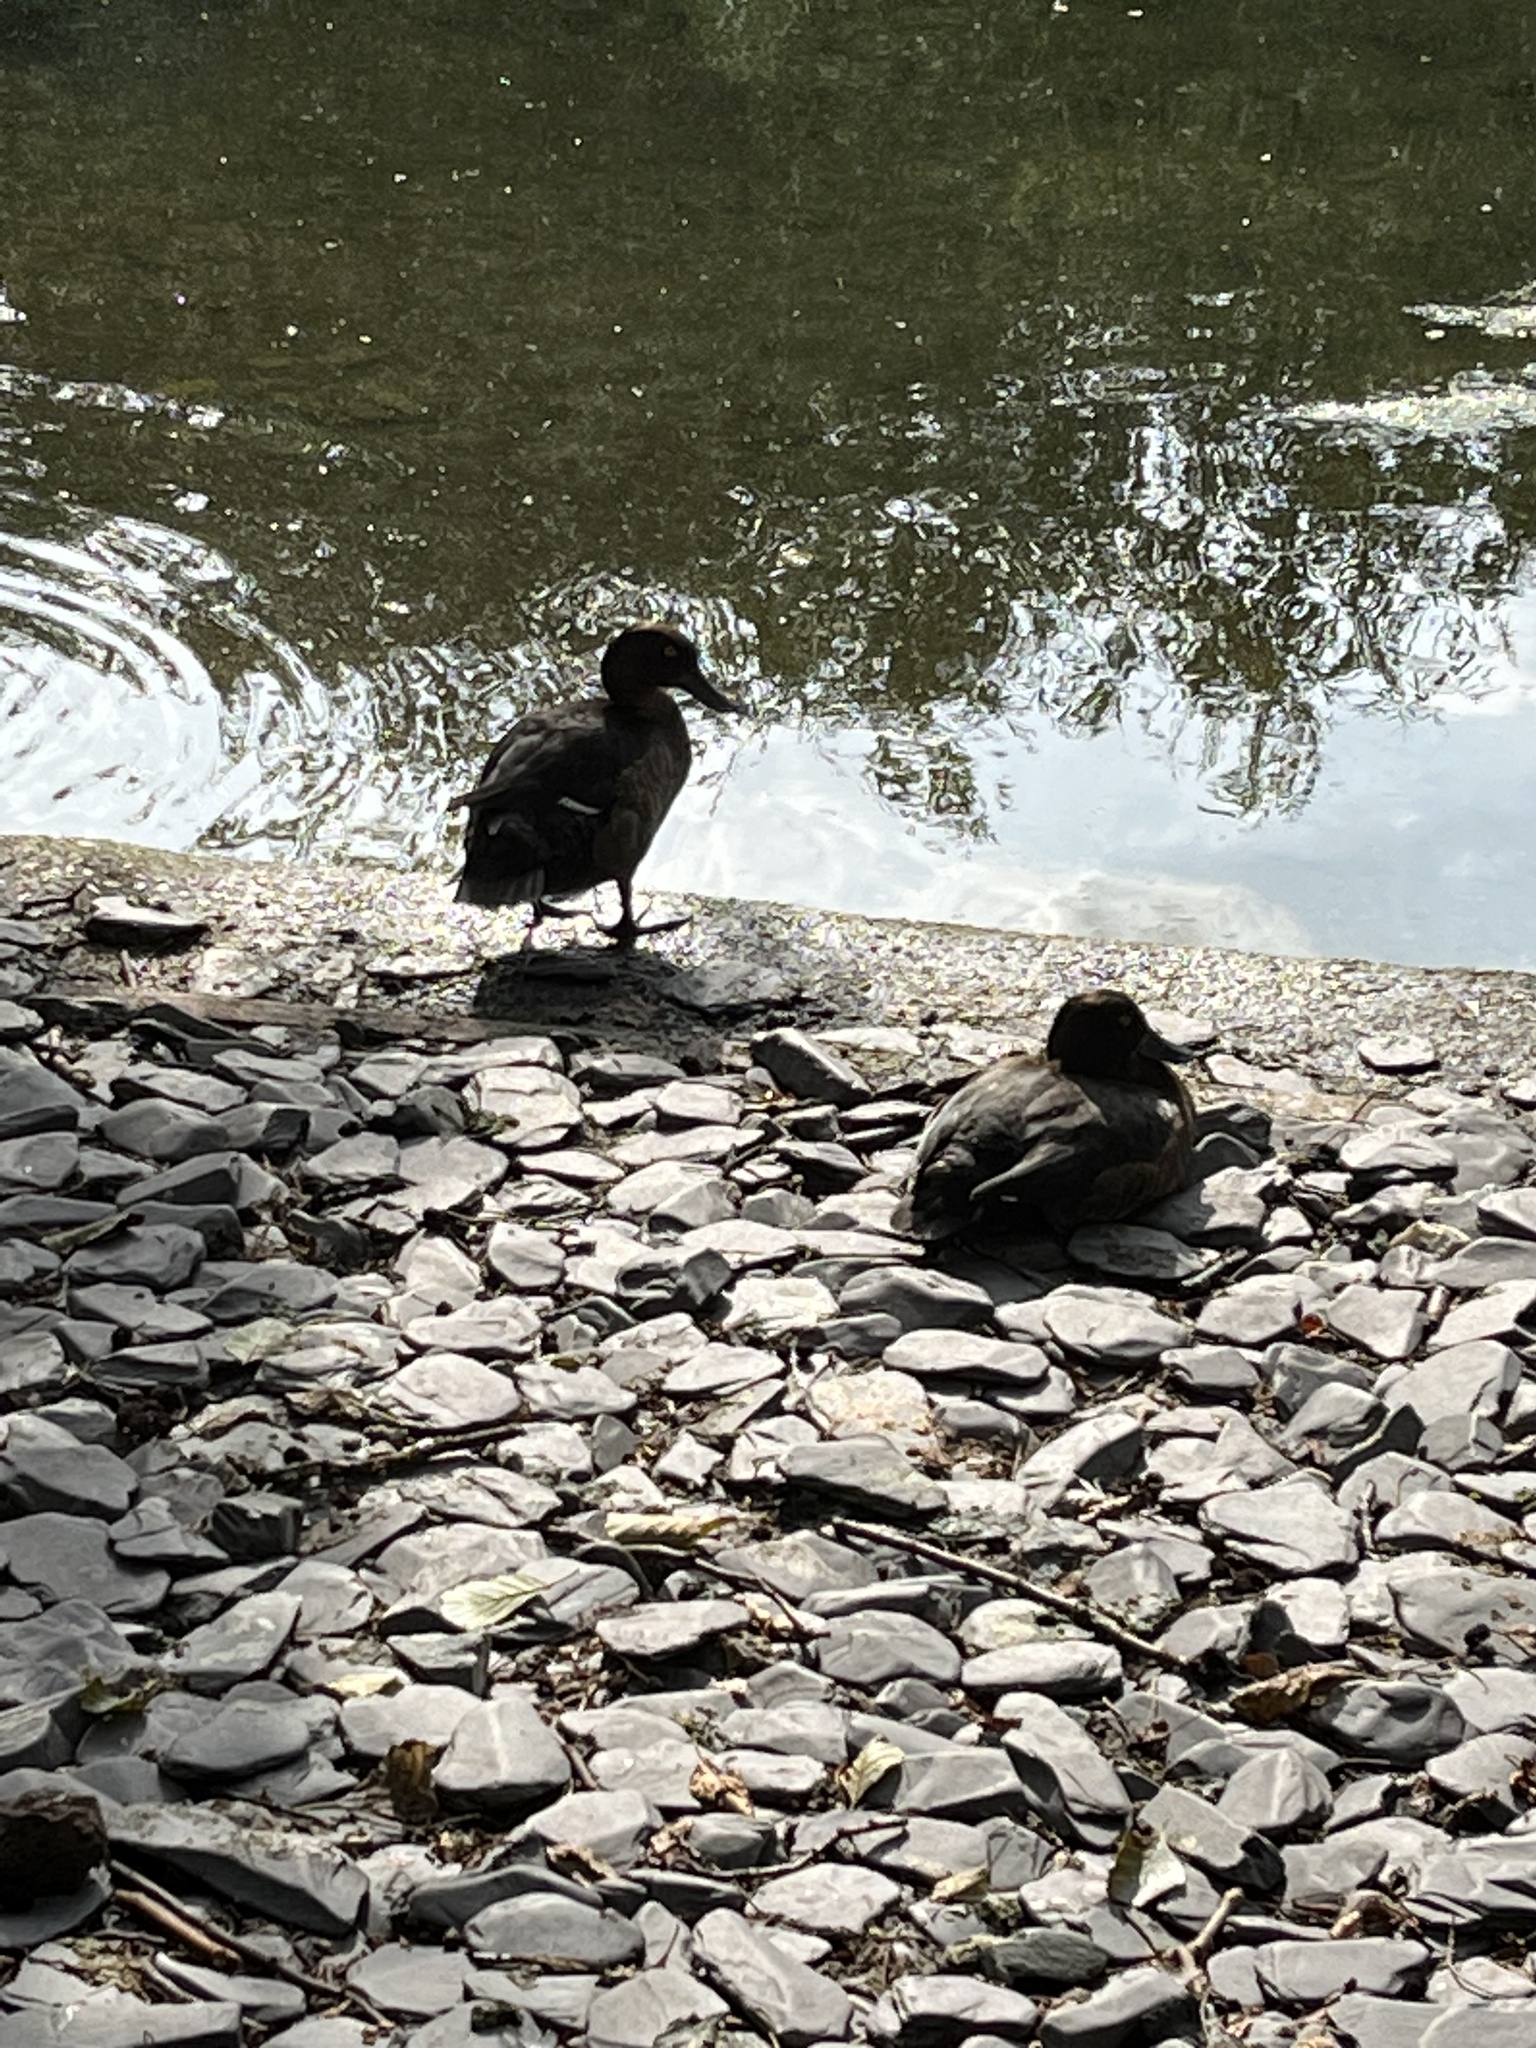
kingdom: Animalia
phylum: Chordata
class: Aves
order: Anseriformes
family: Anatidae
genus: Aythya
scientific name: Aythya fuligula
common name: Tufted duck
